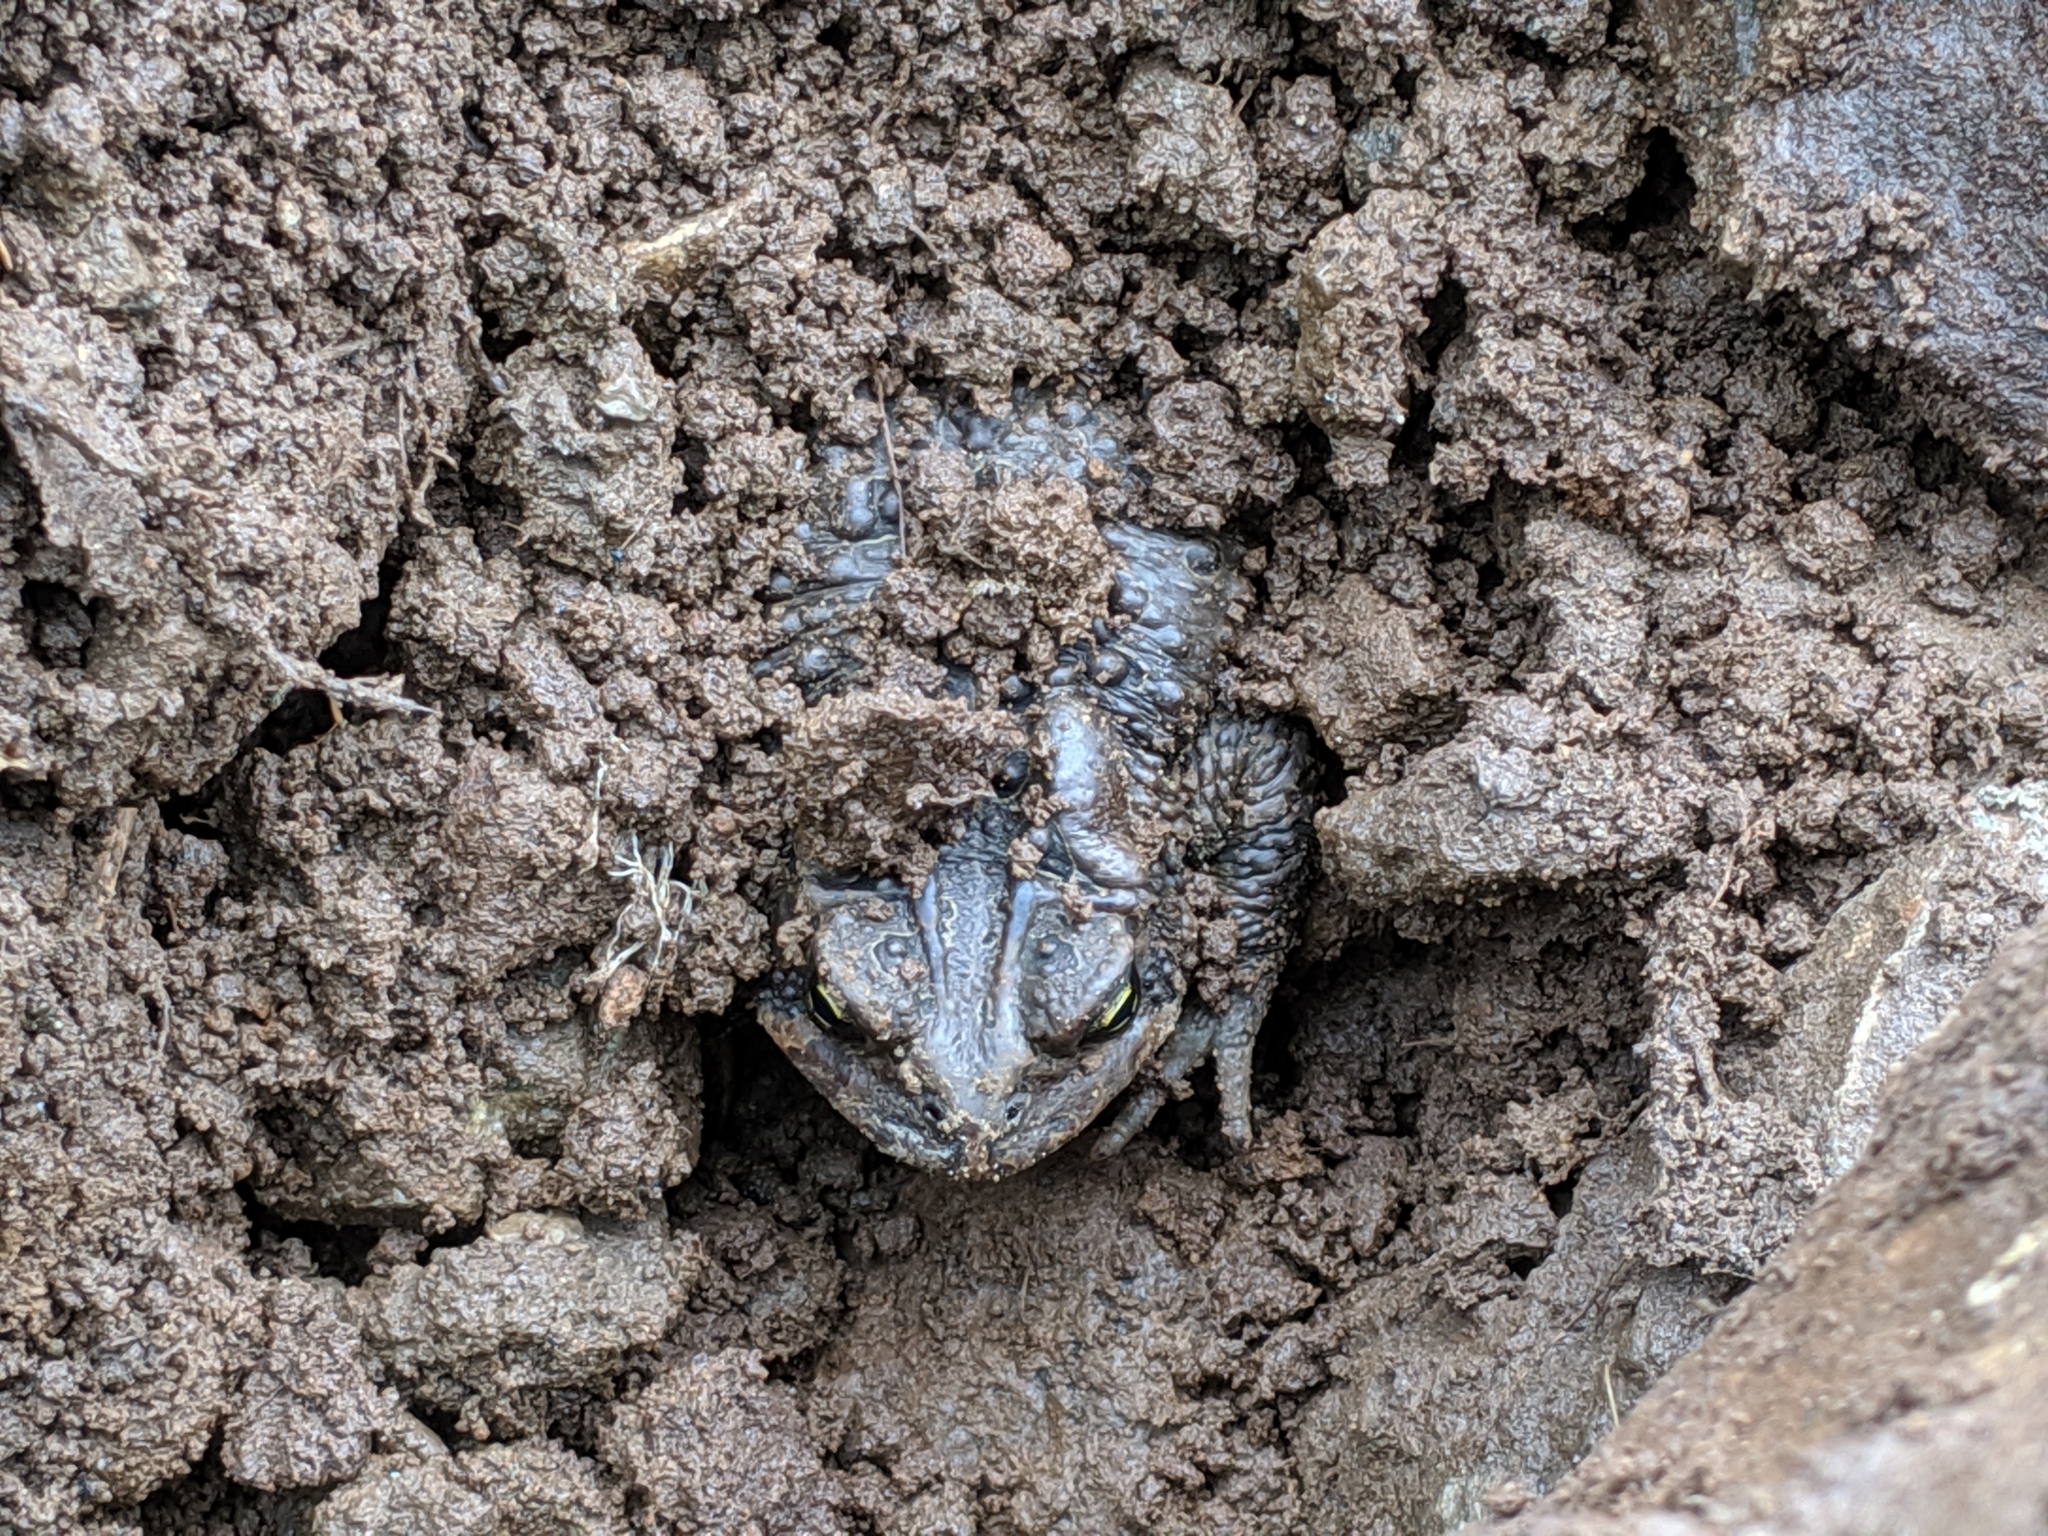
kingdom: Animalia
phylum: Chordata
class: Amphibia
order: Anura
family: Bufonidae
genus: Anaxyrus
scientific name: Anaxyrus americanus
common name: American toad
